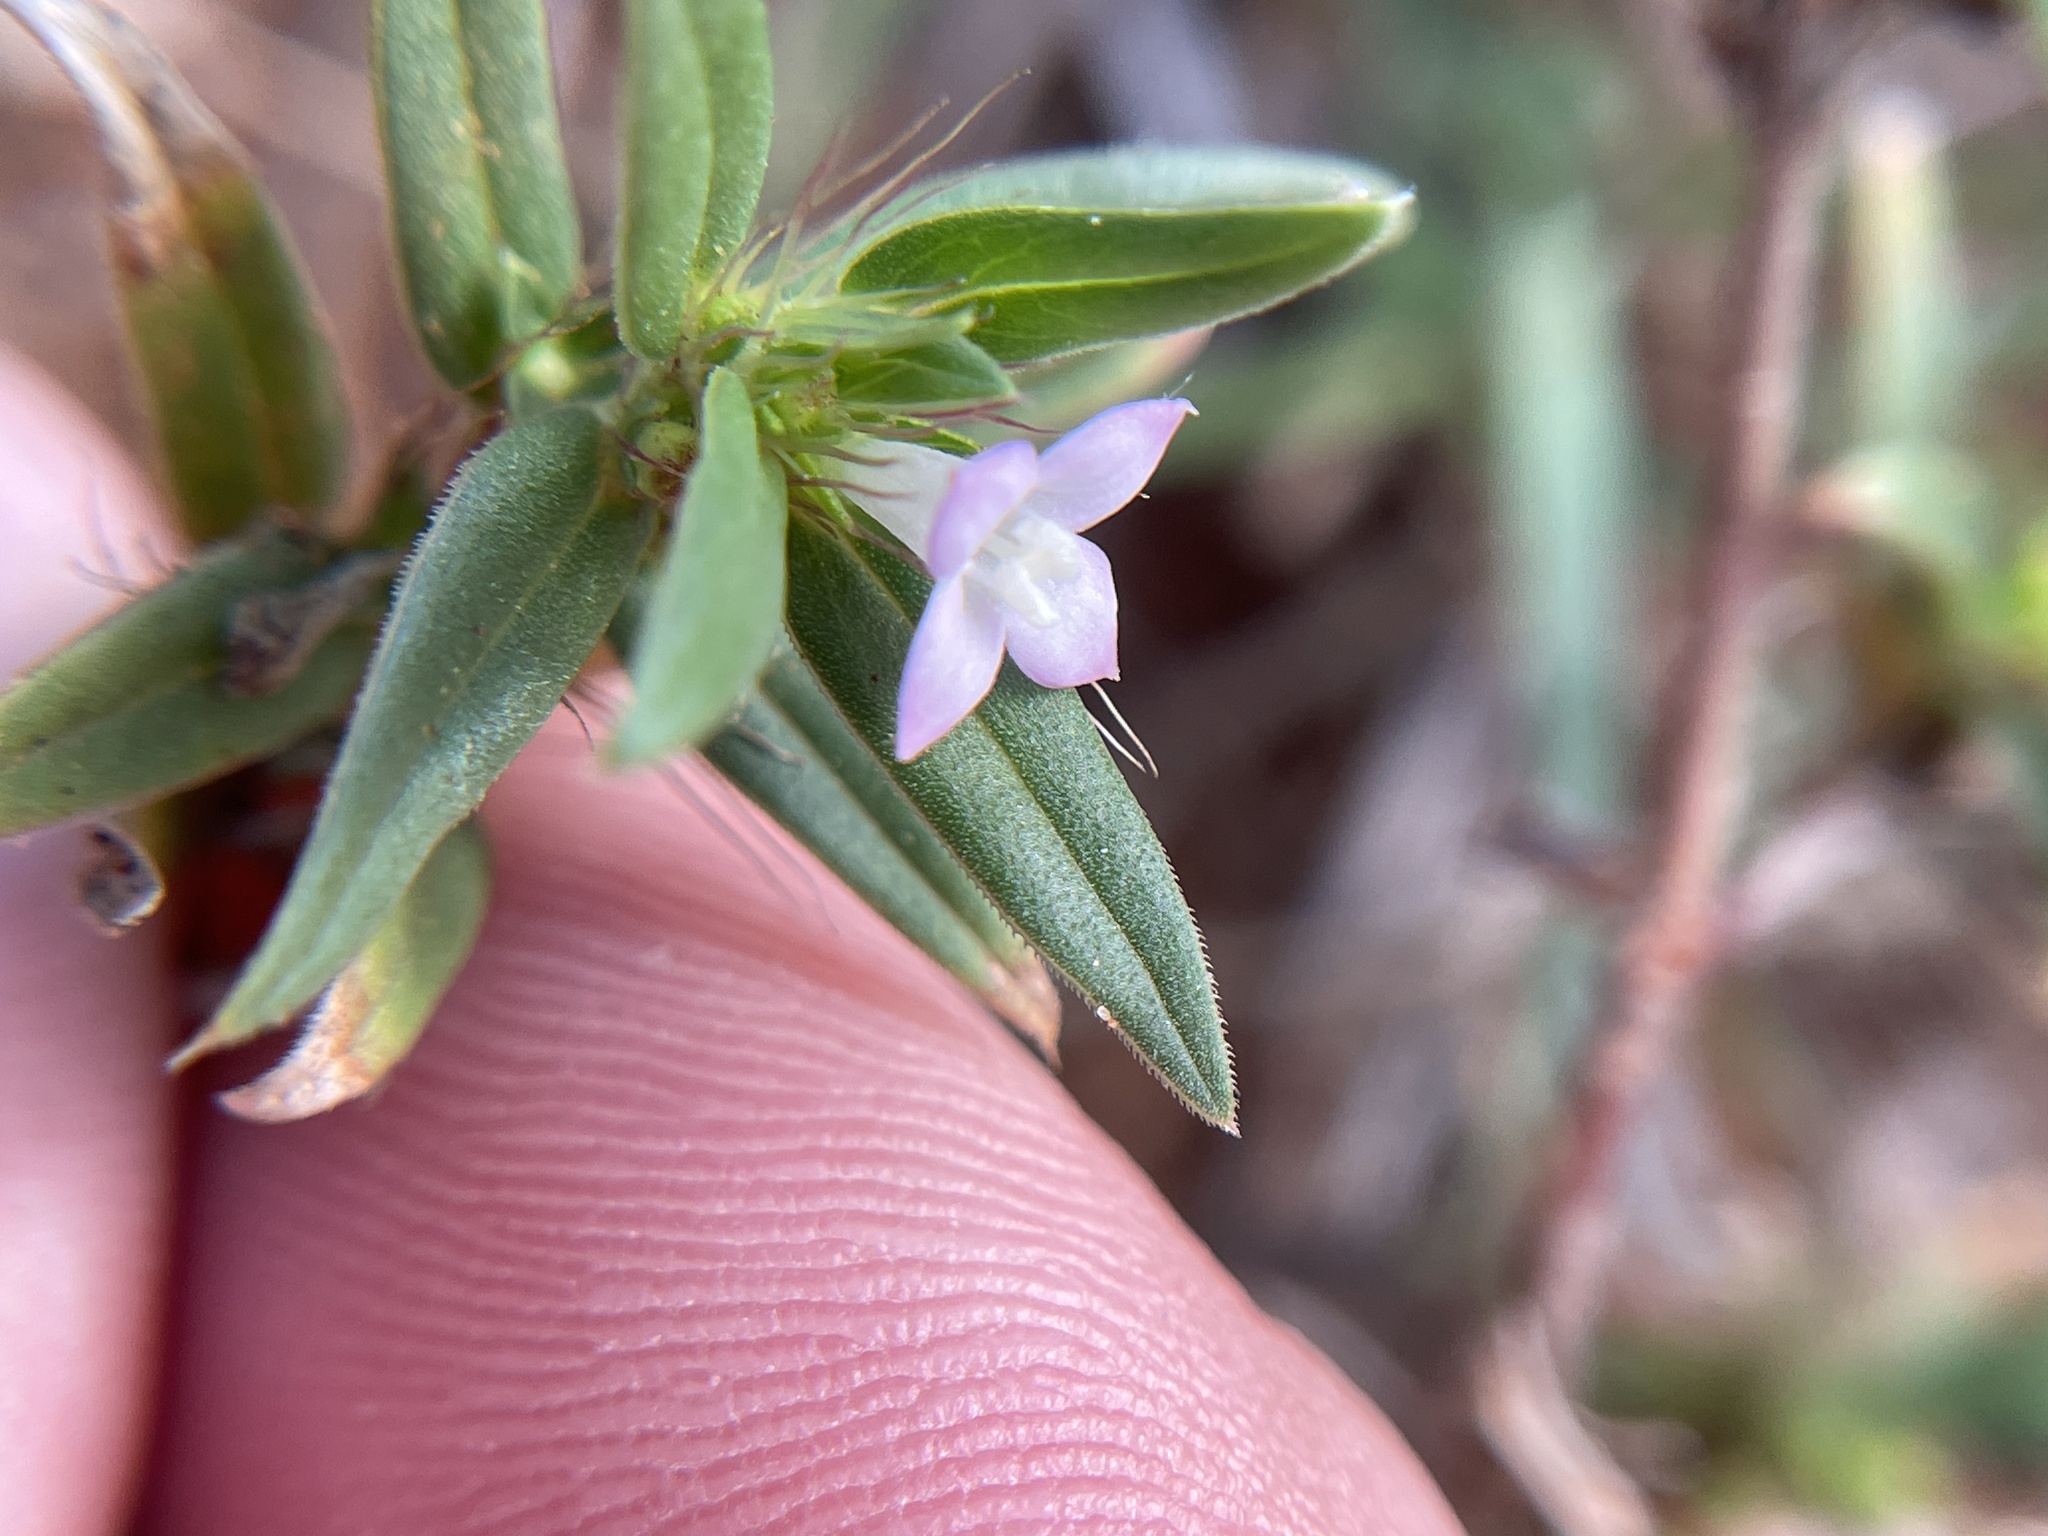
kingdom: Plantae
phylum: Tracheophyta
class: Magnoliopsida
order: Gentianales
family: Rubiaceae
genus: Hexasepalum
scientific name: Hexasepalum teres
